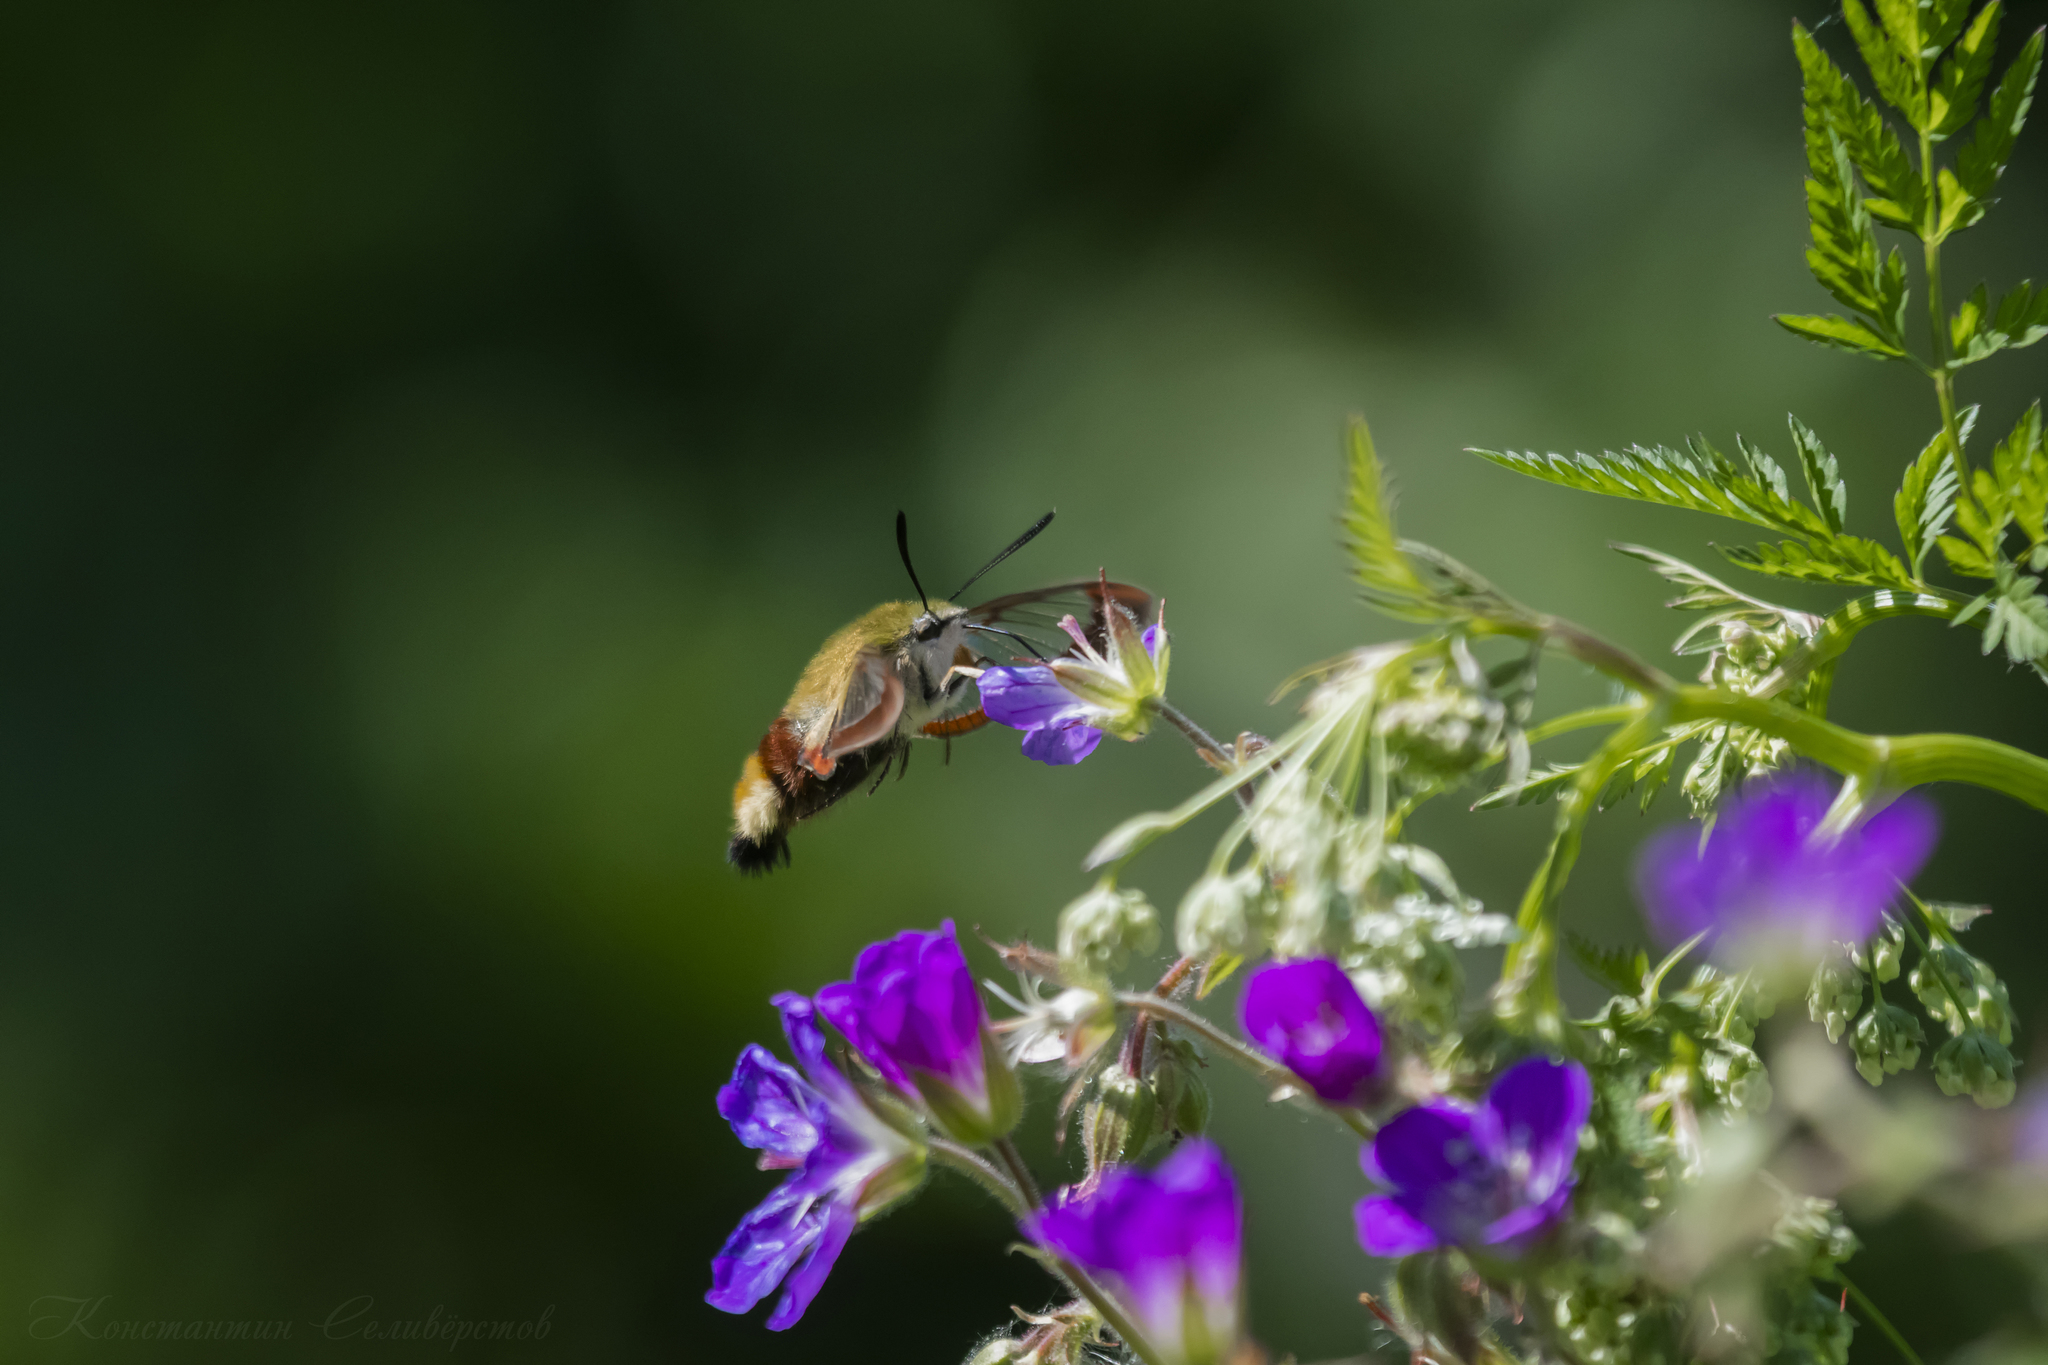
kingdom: Animalia
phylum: Arthropoda
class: Insecta
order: Lepidoptera
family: Sphingidae
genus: Hemaris
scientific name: Hemaris fuciformis
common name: Broad-bordered bee hawk-moth
